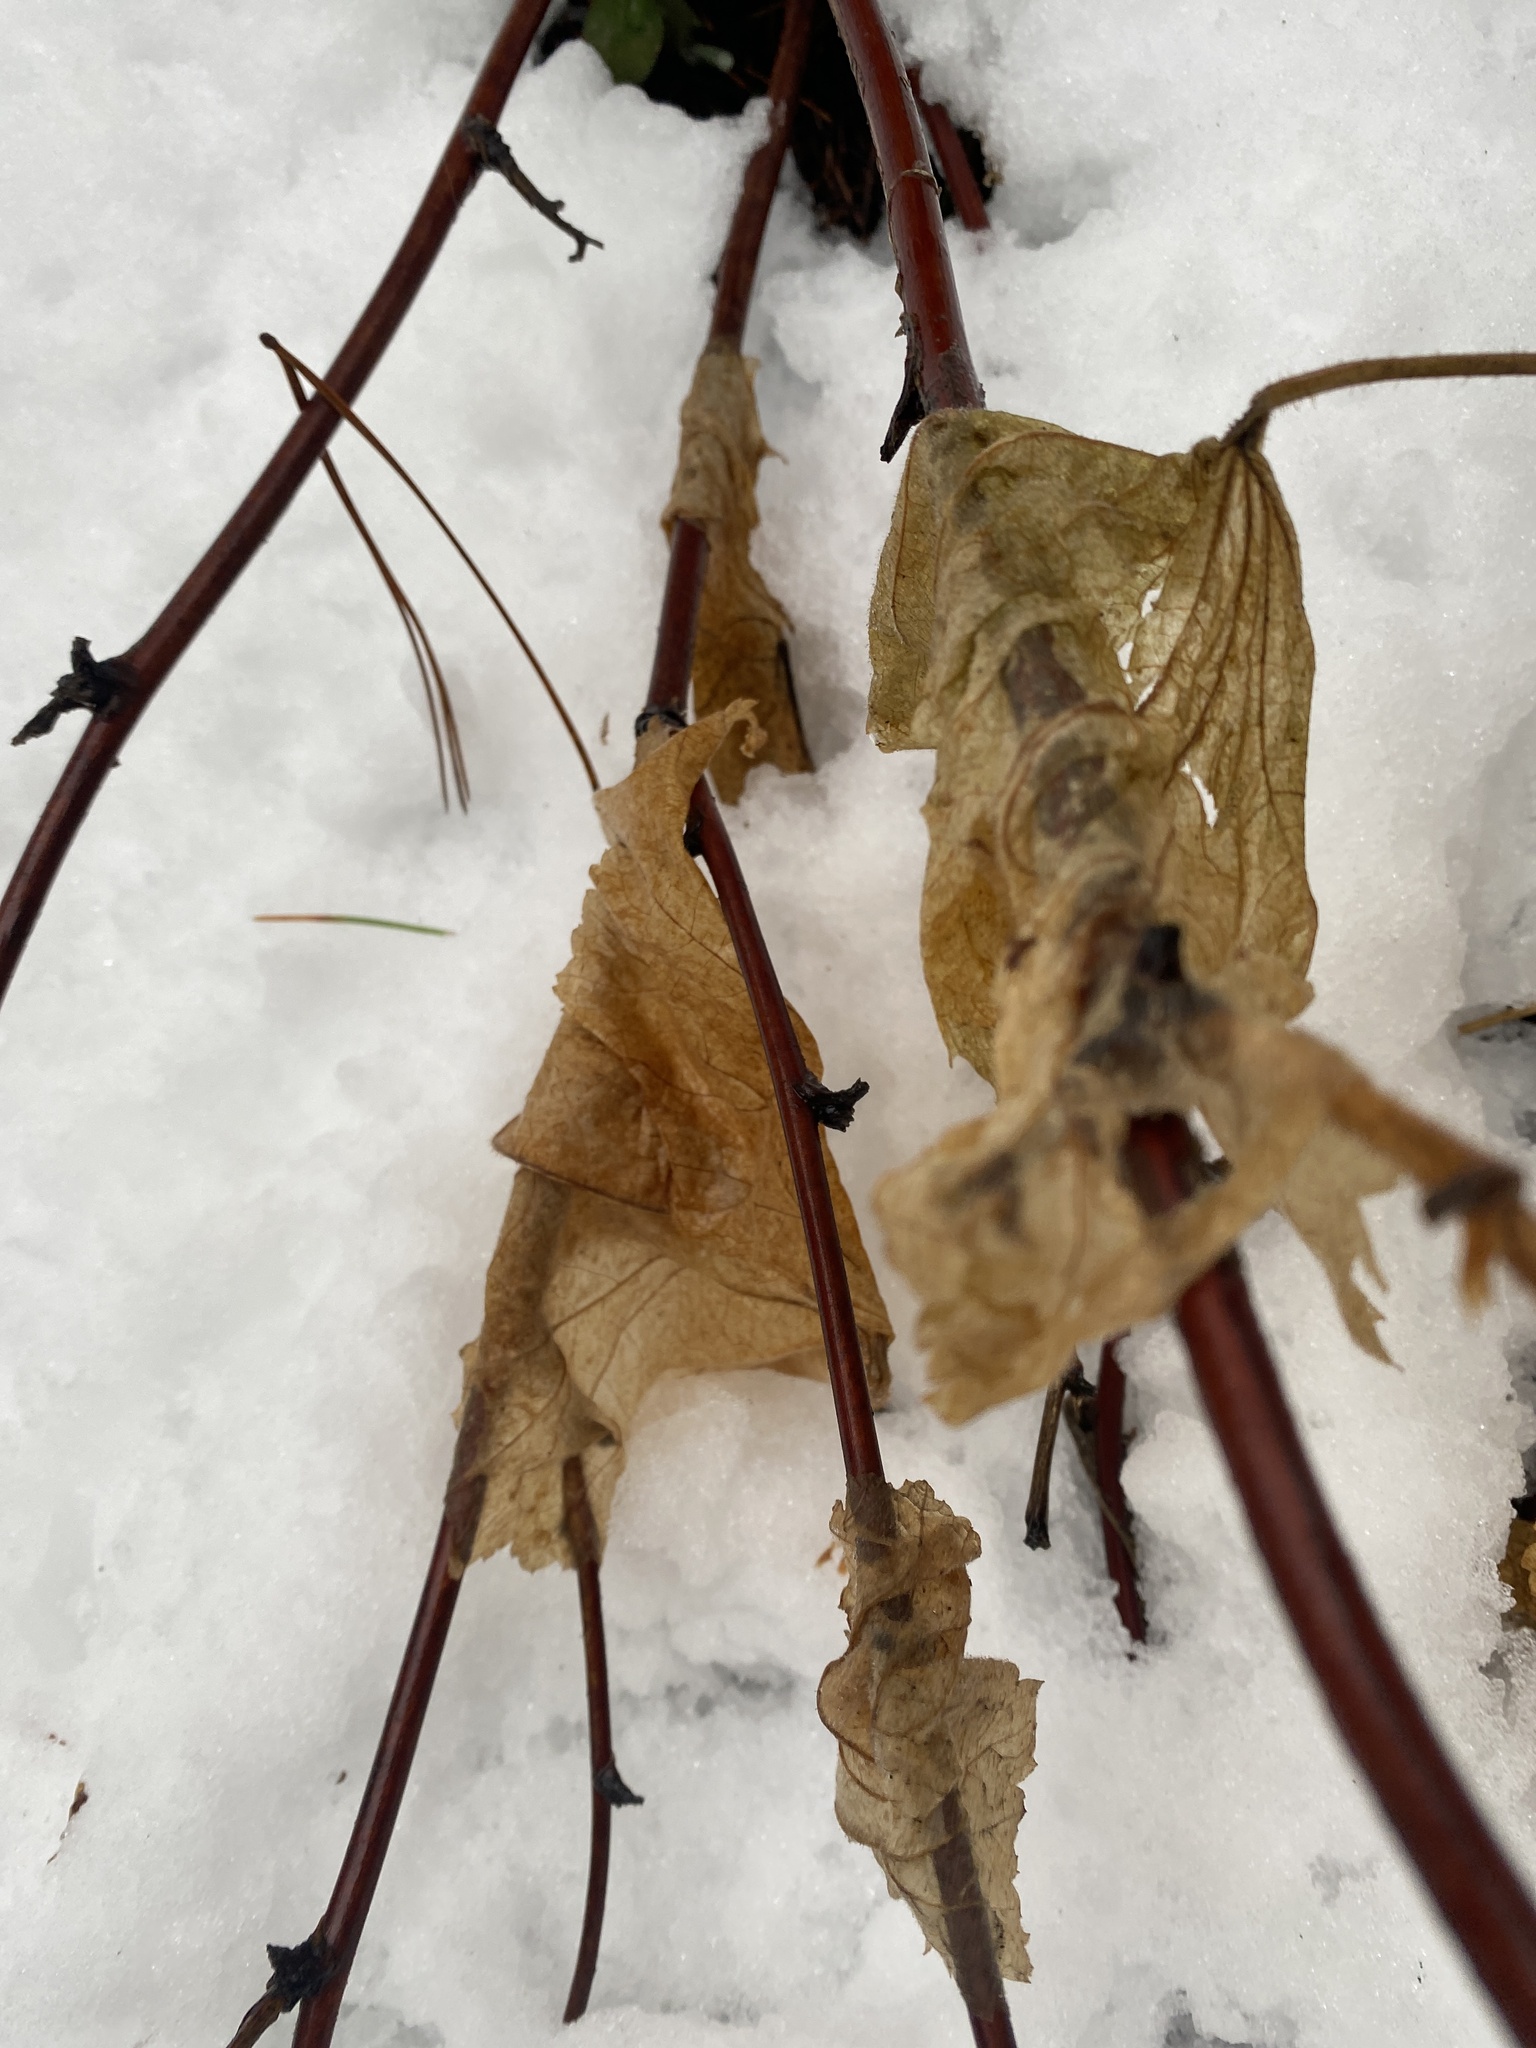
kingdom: Plantae
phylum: Tracheophyta
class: Magnoliopsida
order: Rosales
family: Rosaceae
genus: Rubus
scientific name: Rubus parviflorus
